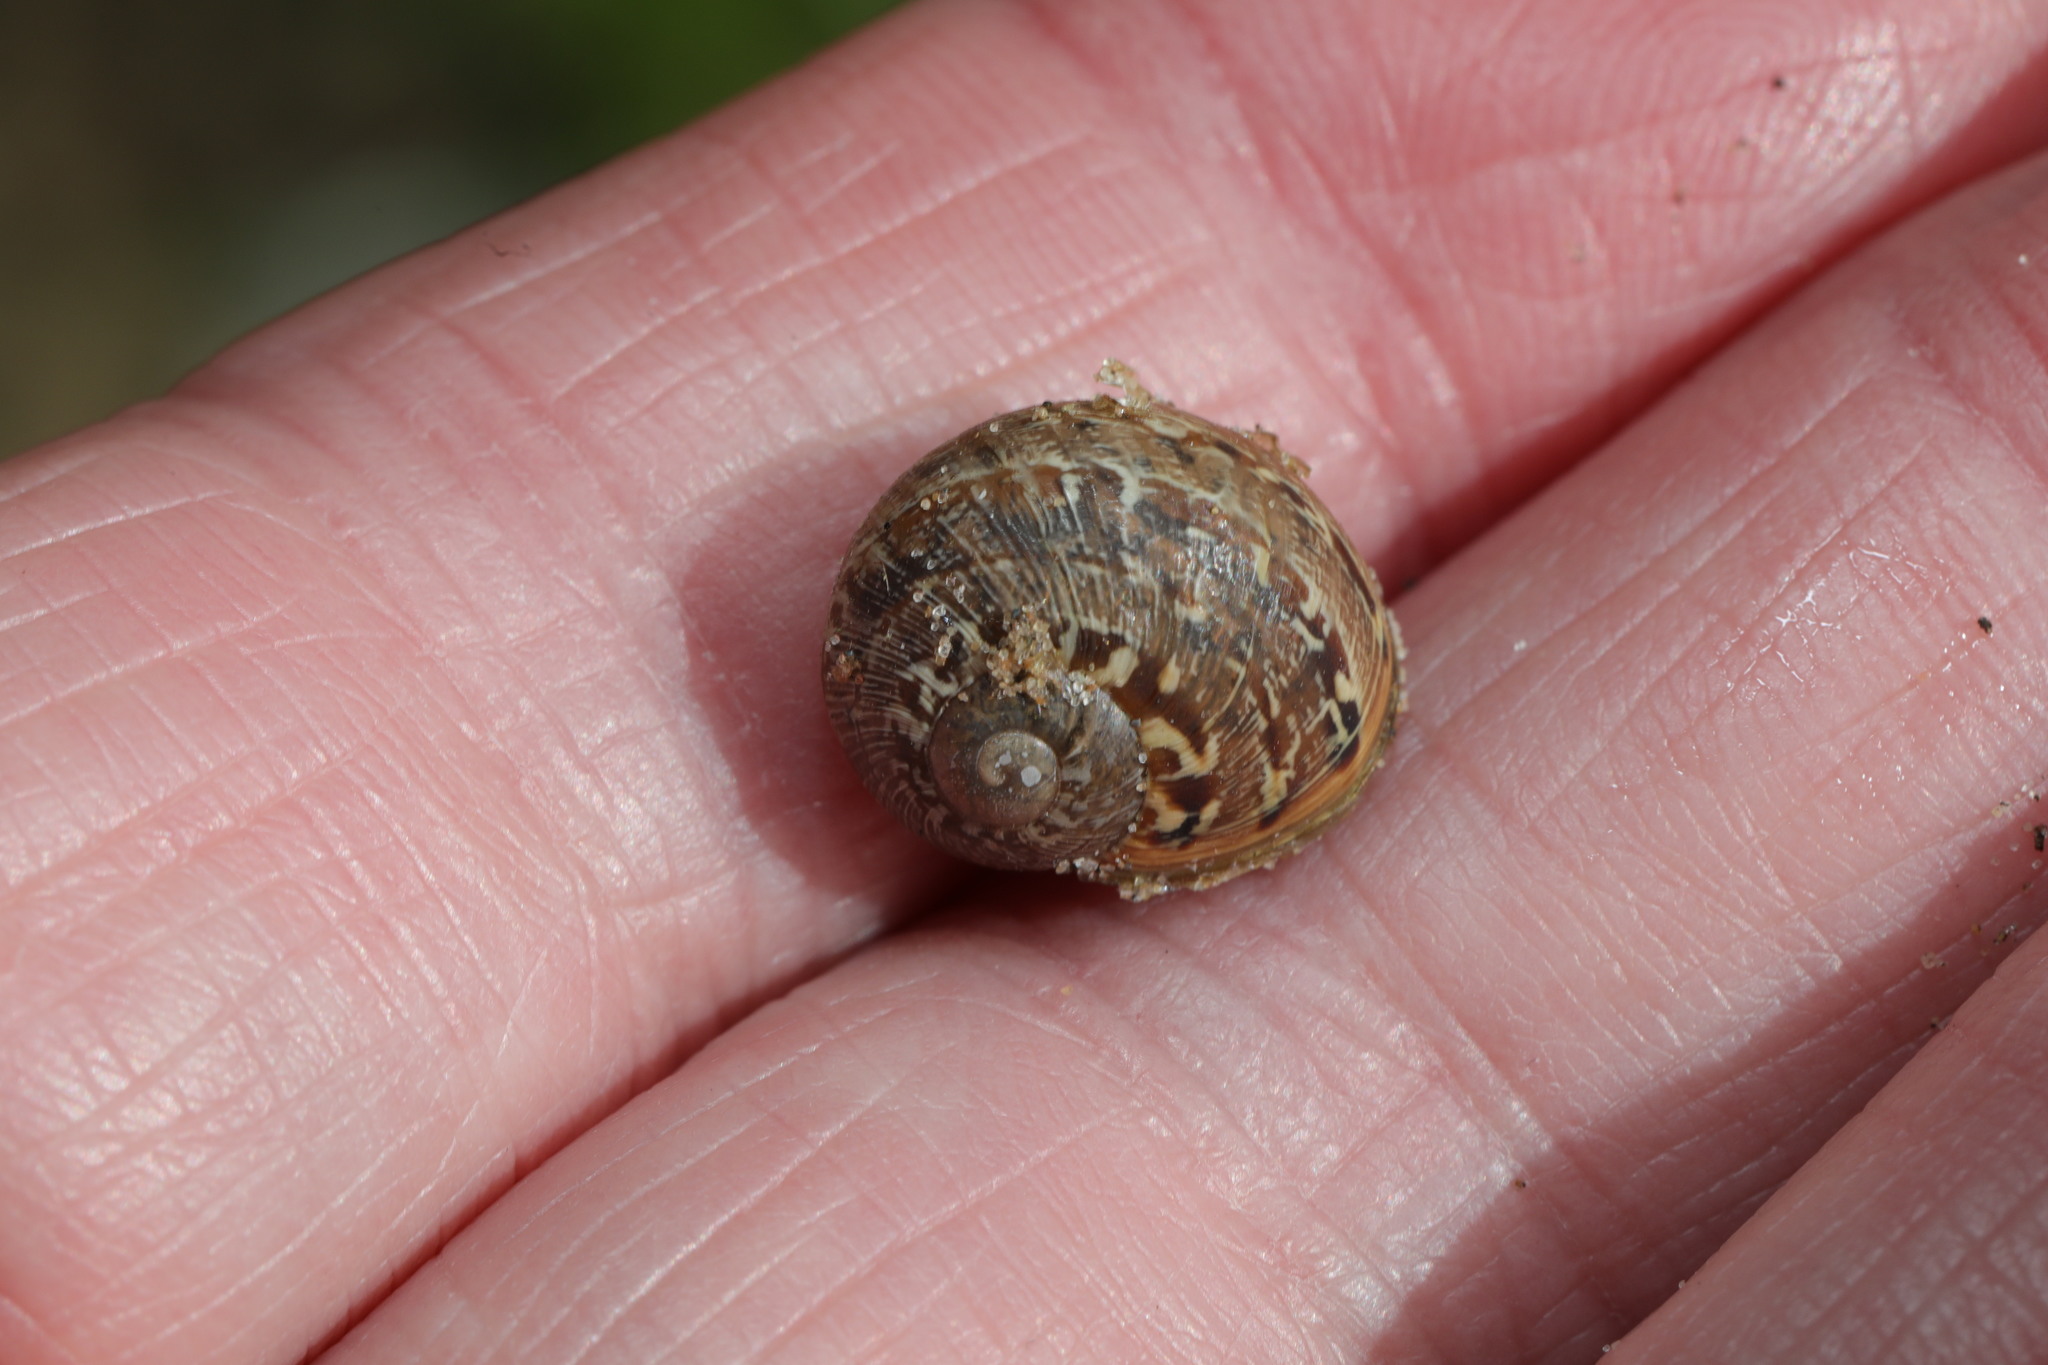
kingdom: Animalia
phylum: Mollusca
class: Gastropoda
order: Stylommatophora
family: Helicidae
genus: Cornu
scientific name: Cornu aspersum
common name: Brown garden snail
